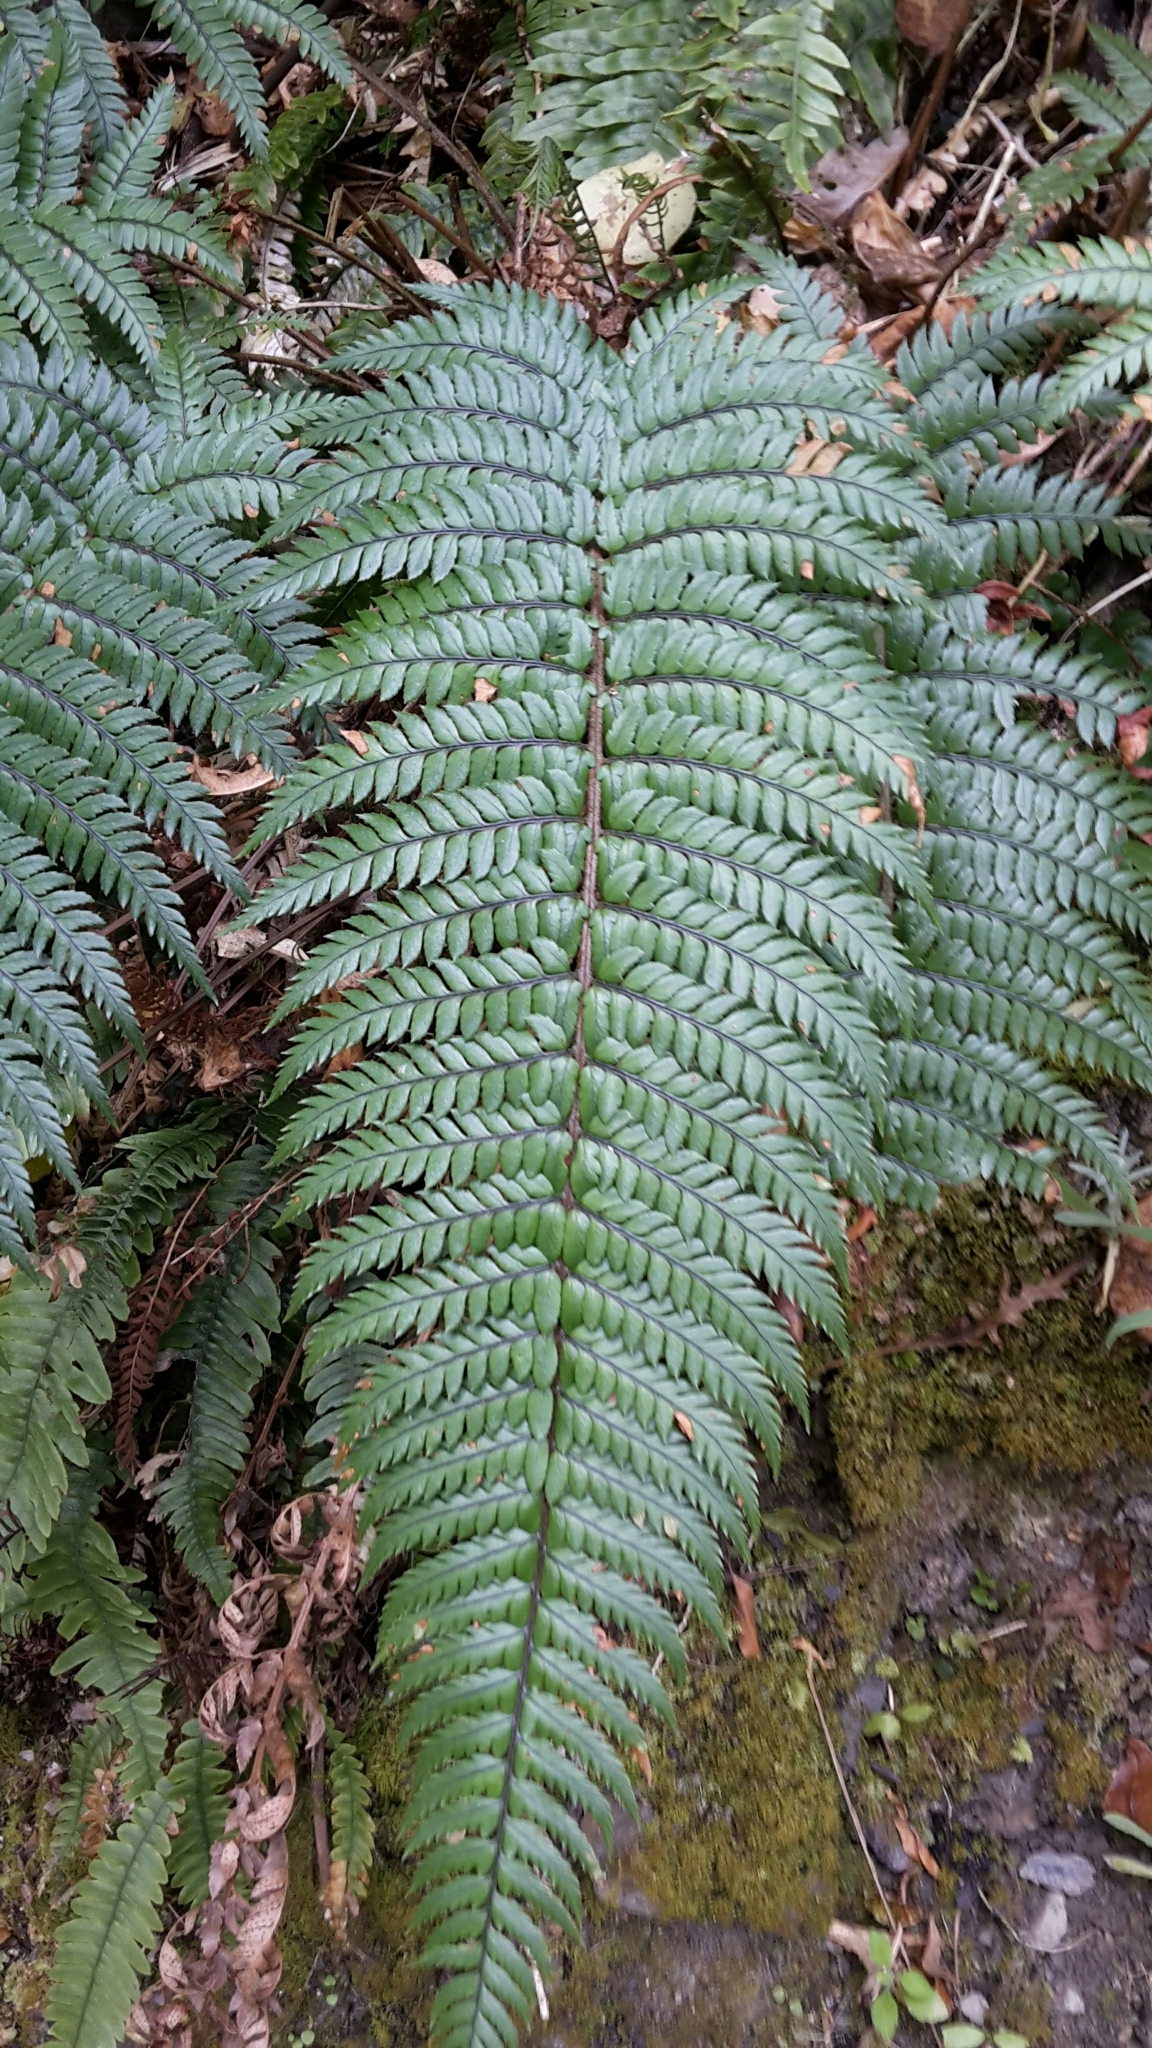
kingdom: Plantae
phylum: Tracheophyta
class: Polypodiopsida
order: Polypodiales
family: Dryopteridaceae
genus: Polystichum
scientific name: Polystichum wawranum
